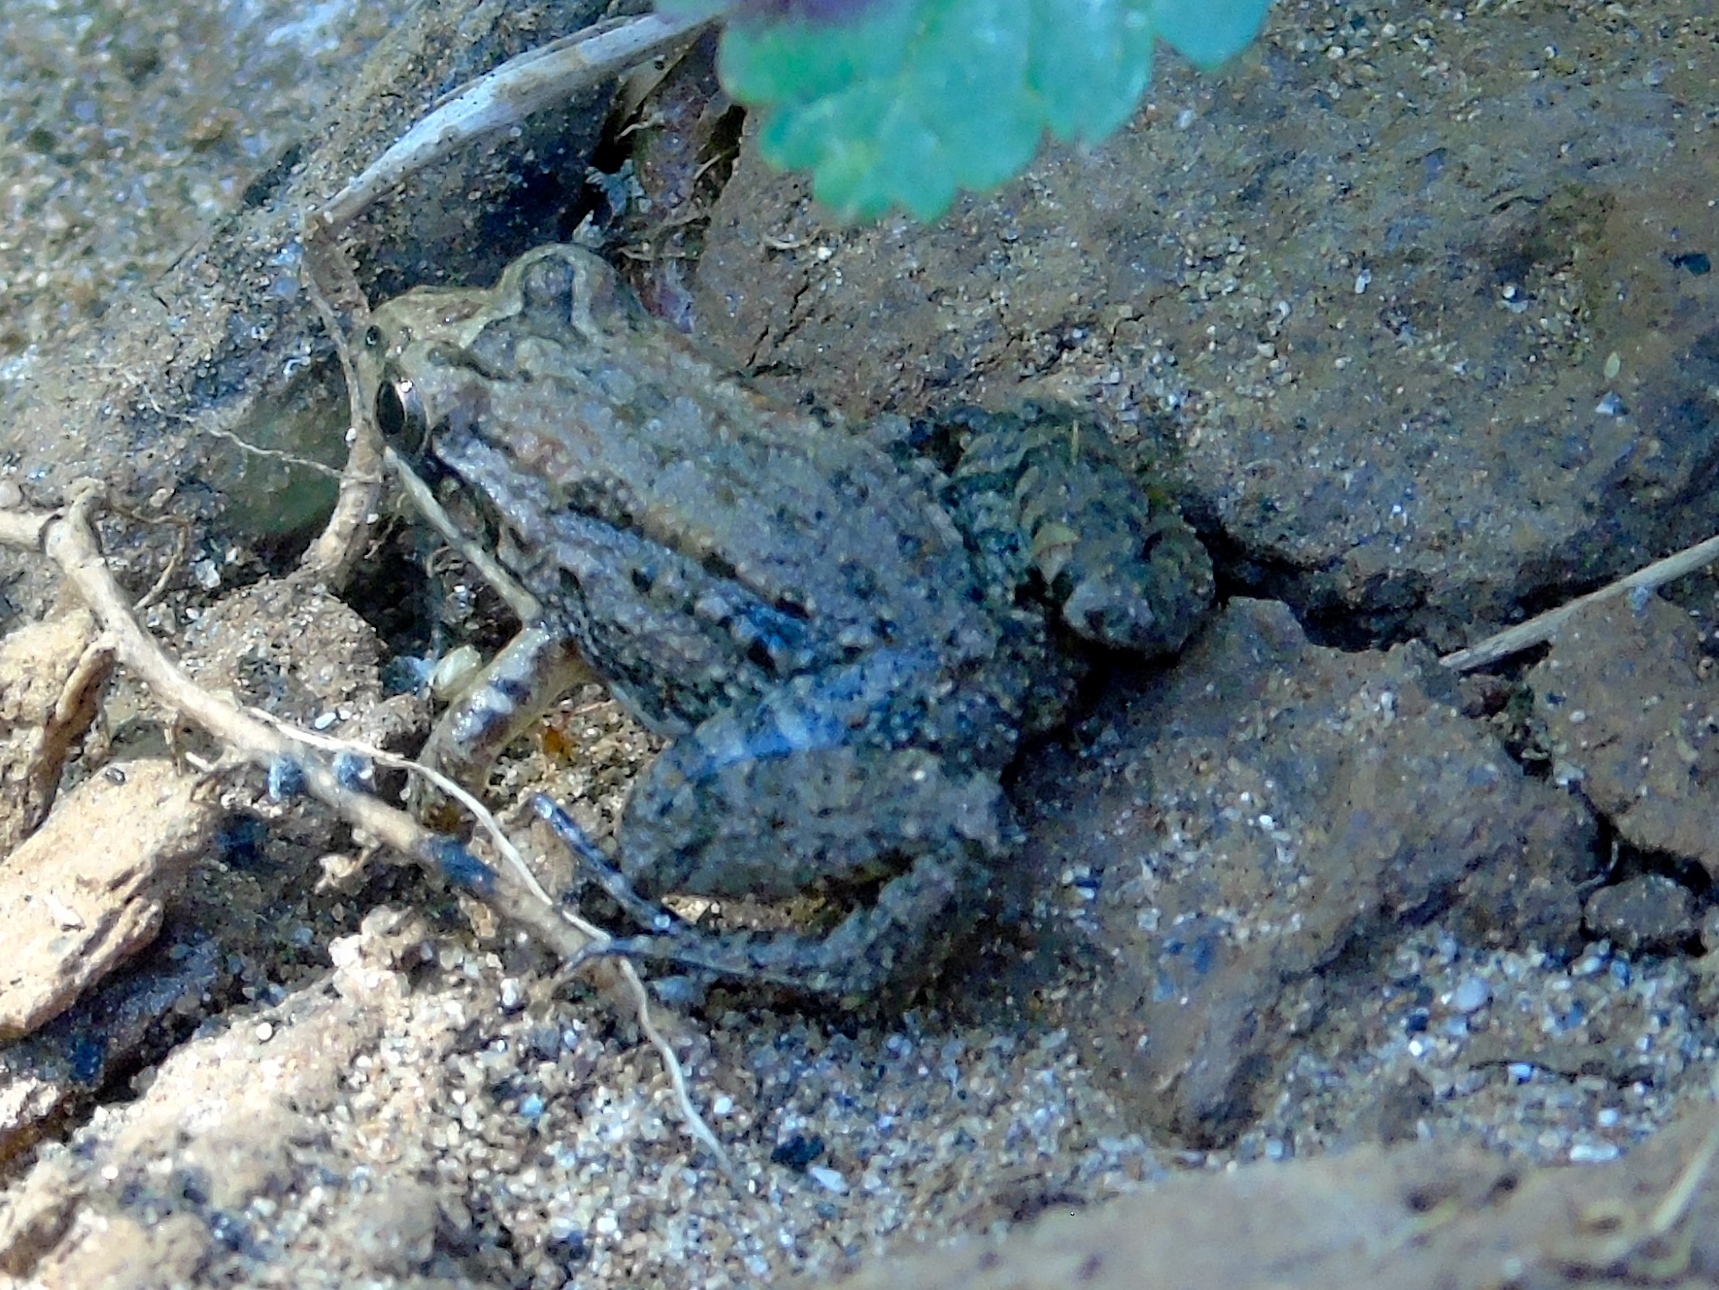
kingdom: Animalia
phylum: Chordata
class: Amphibia
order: Anura
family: Leptodactylidae
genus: Leptodactylus
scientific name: Leptodactylus melanonotus
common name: Fringe-toed foamfrog
